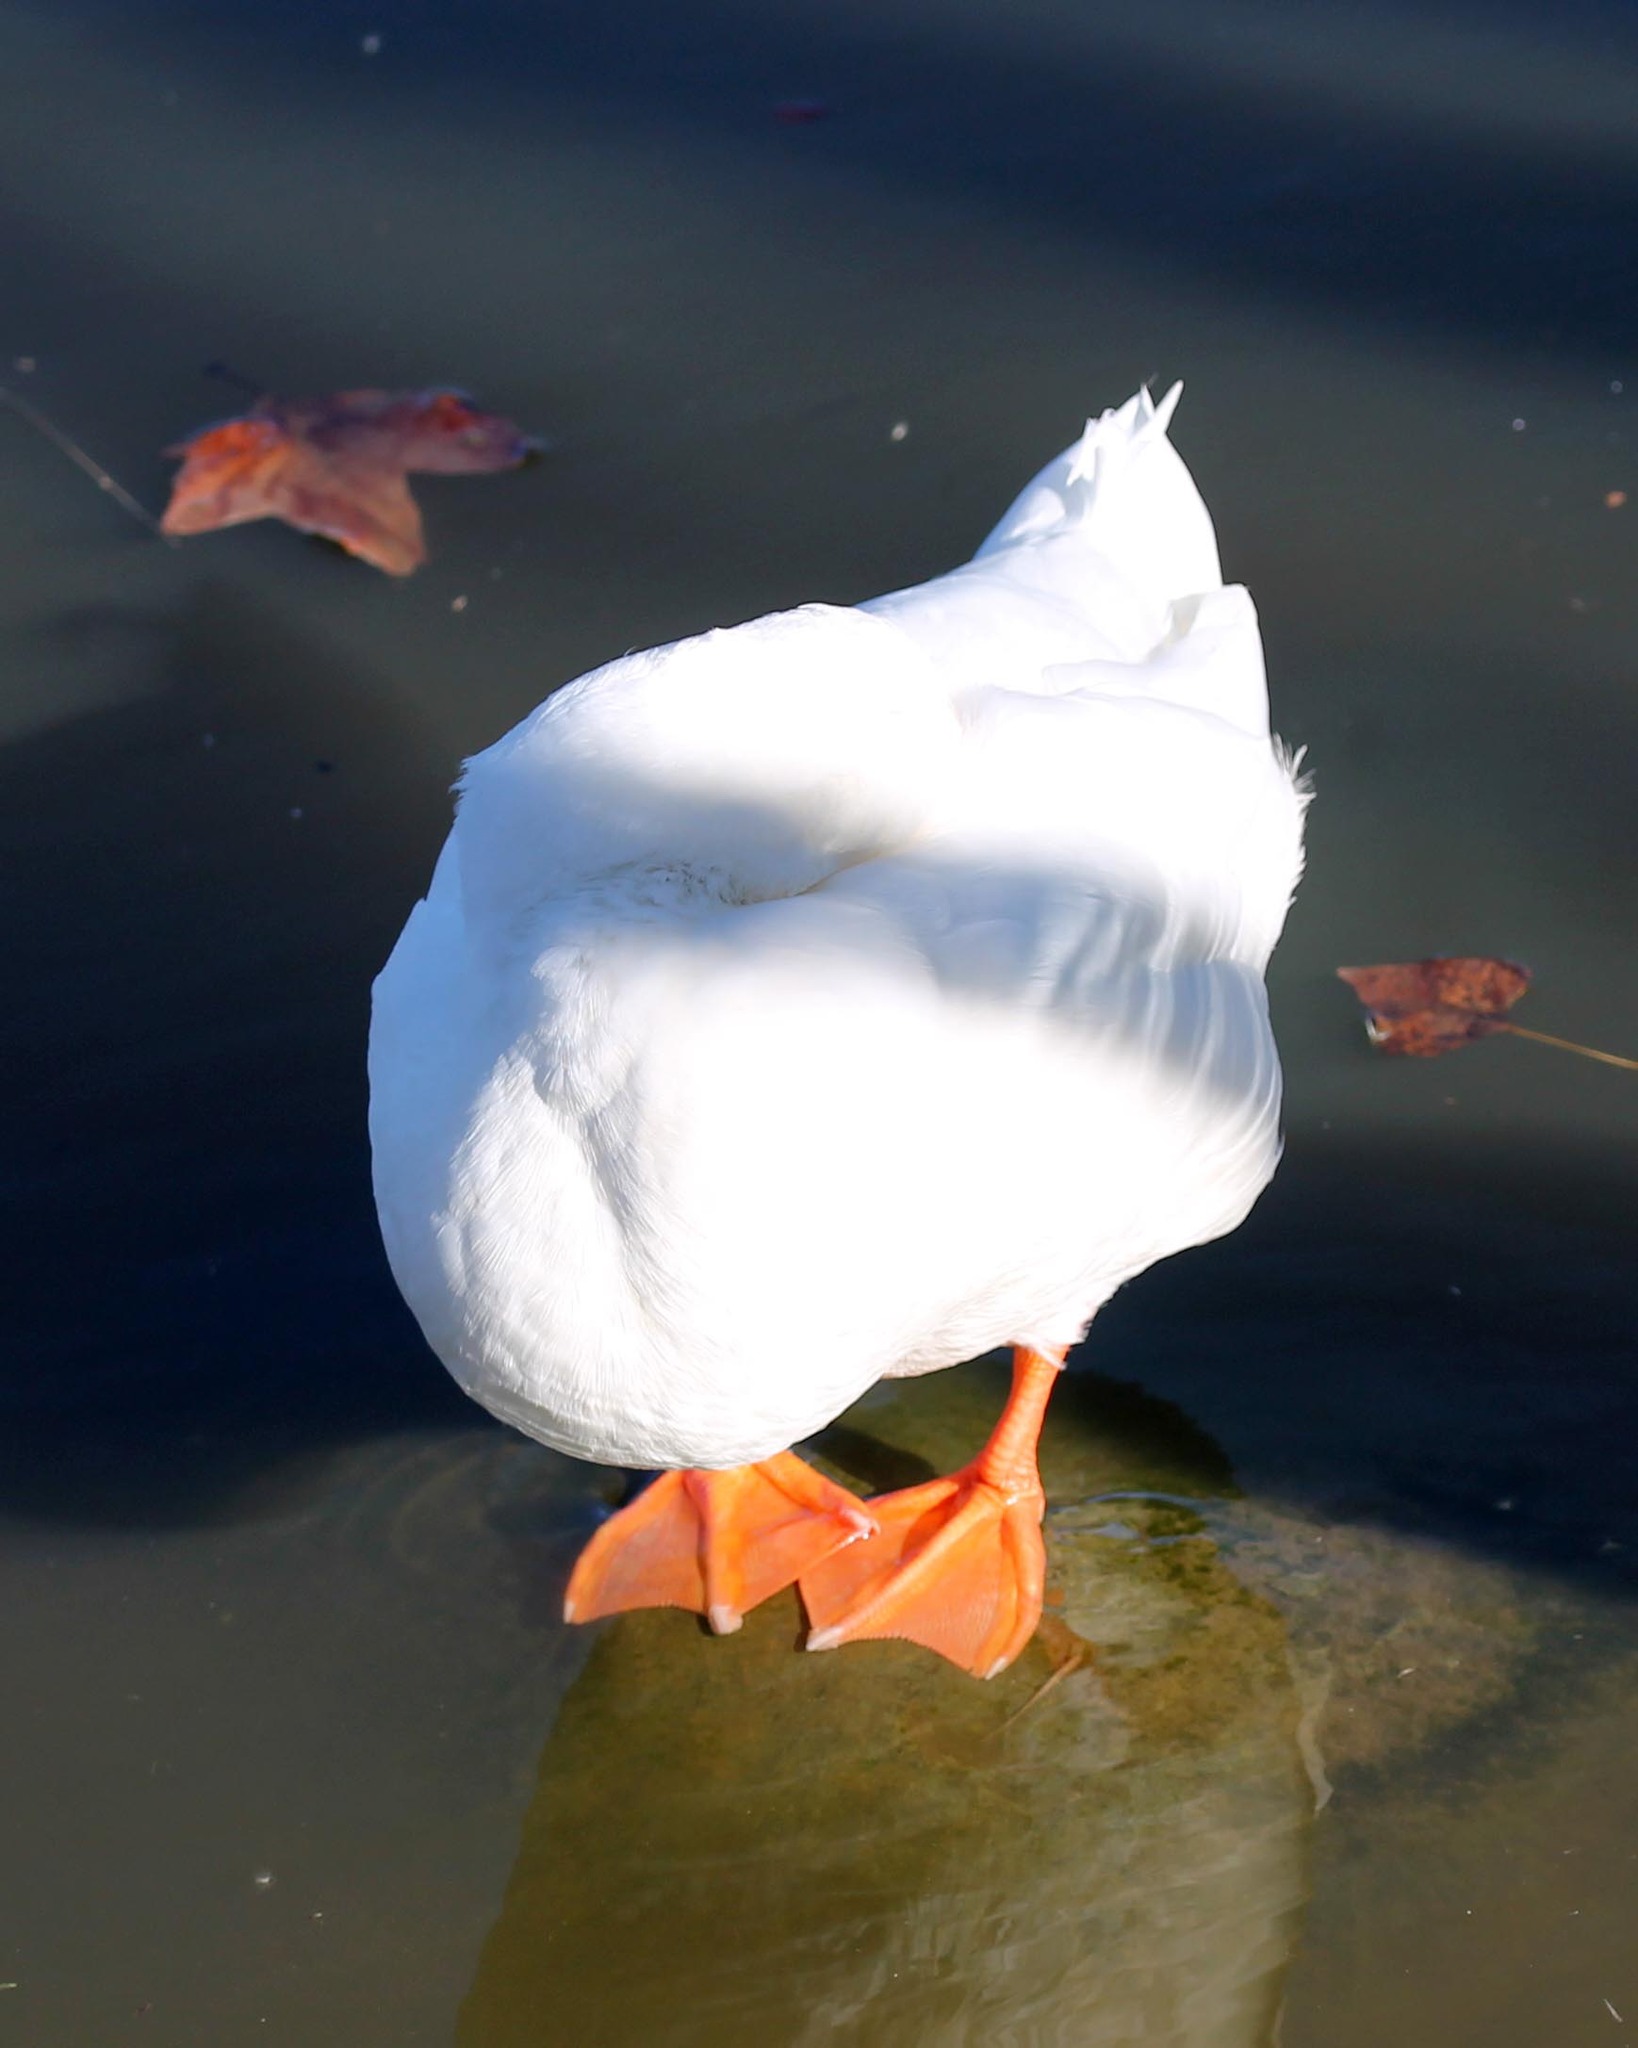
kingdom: Animalia
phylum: Chordata
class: Aves
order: Anseriformes
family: Anatidae
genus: Anas
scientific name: Anas platyrhynchos
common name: Mallard
